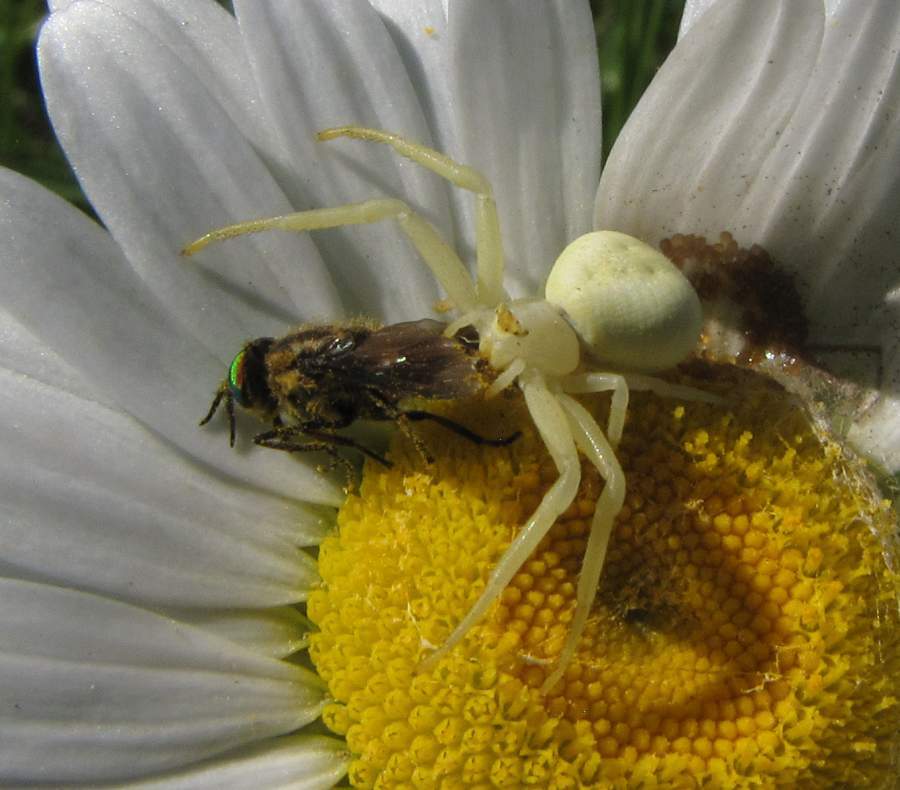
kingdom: Animalia
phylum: Arthropoda
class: Arachnida
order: Araneae
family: Thomisidae
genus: Misumena
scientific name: Misumena vatia
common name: Goldenrod crab spider
